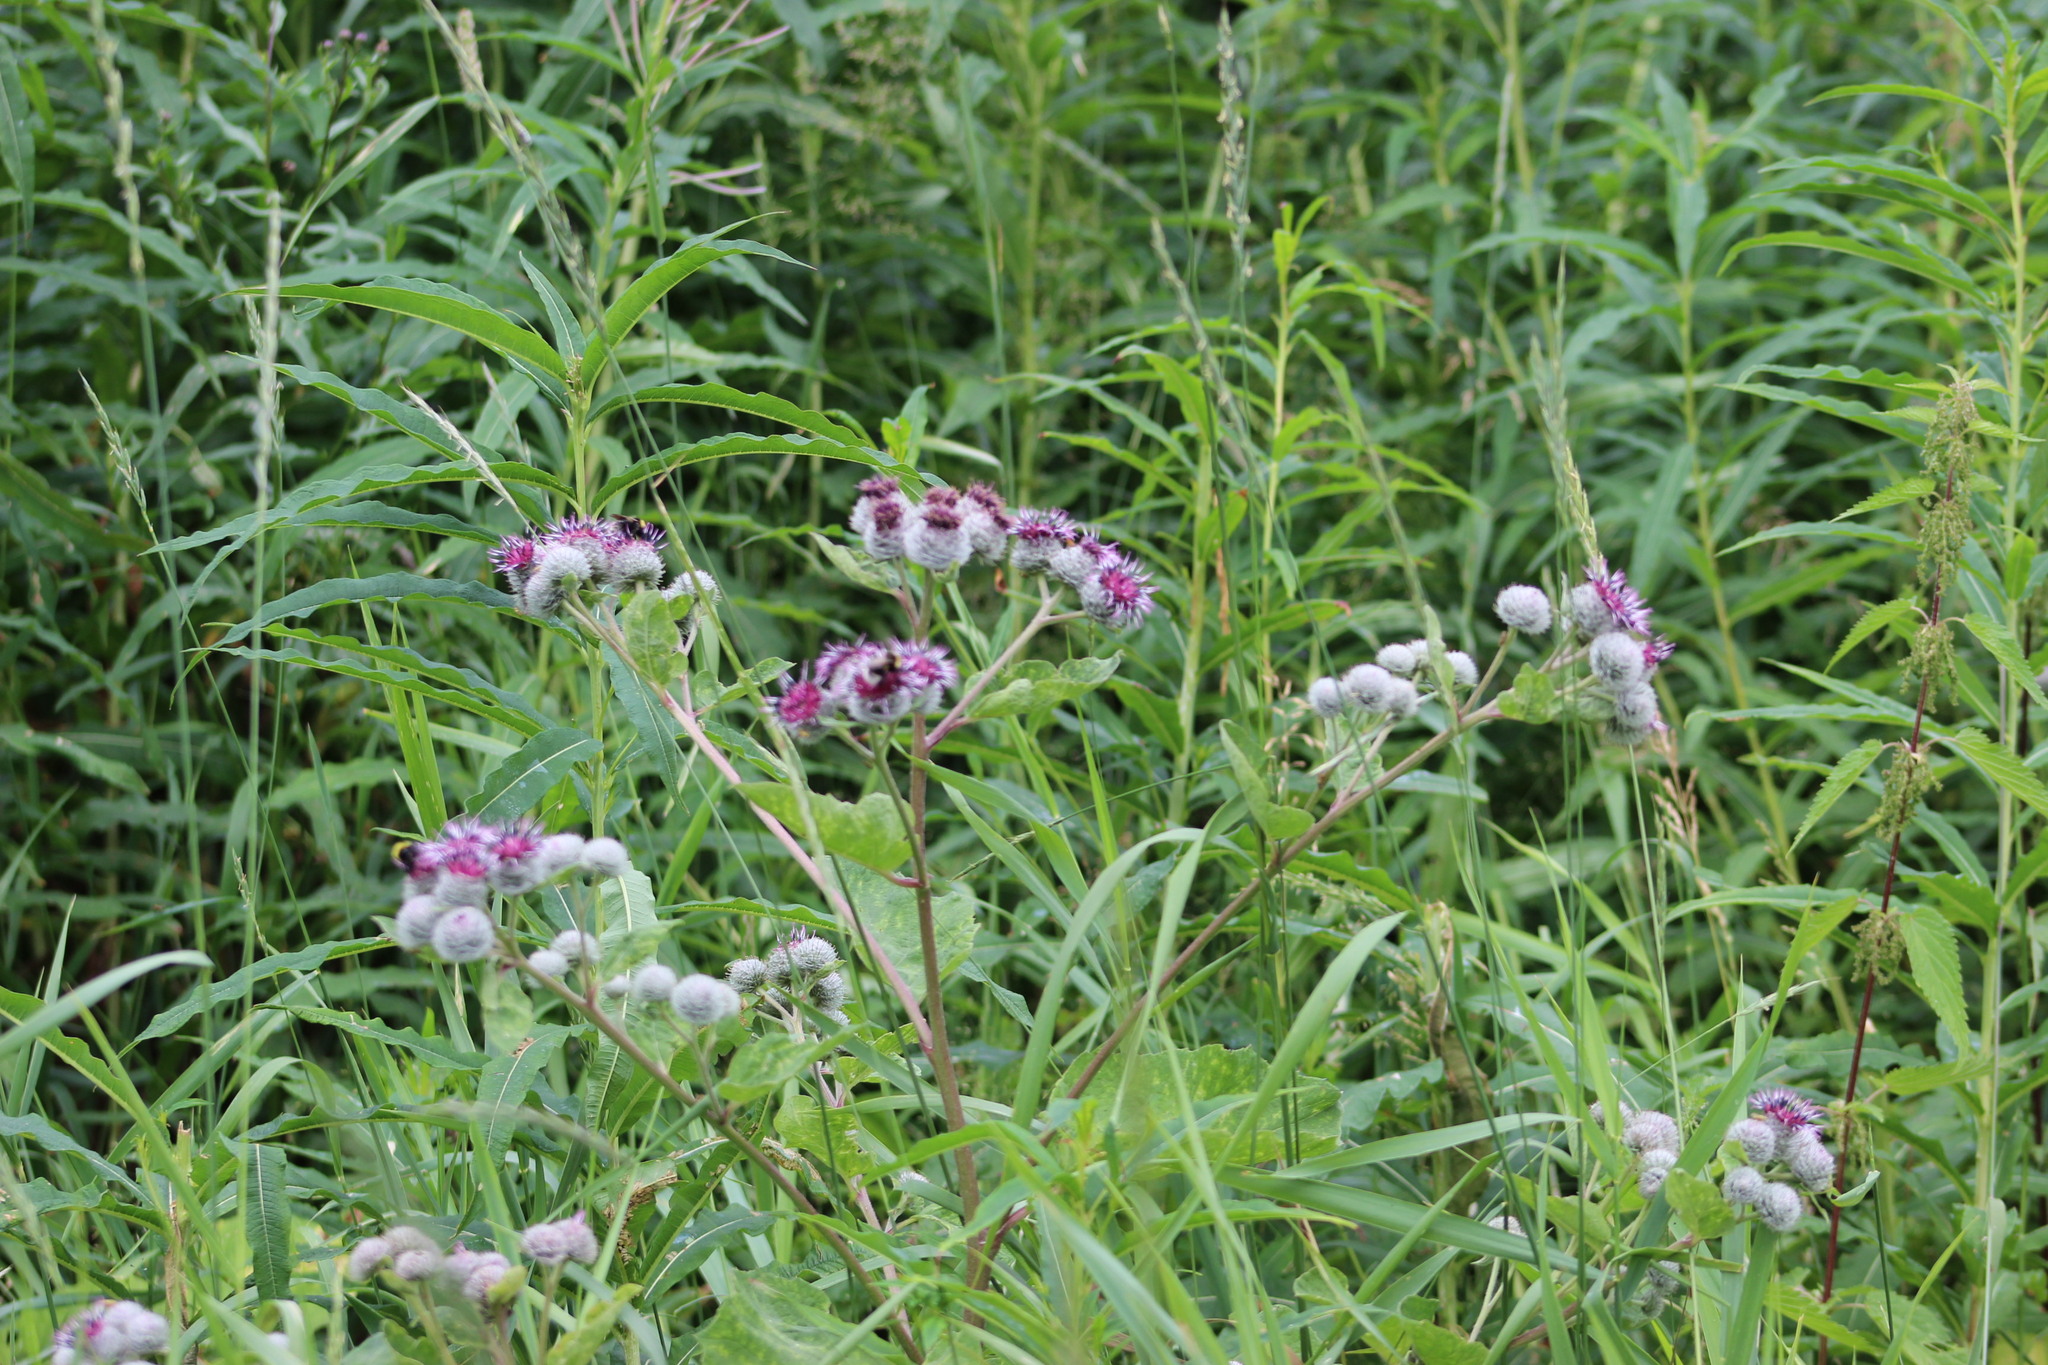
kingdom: Plantae
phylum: Tracheophyta
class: Magnoliopsida
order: Asterales
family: Asteraceae
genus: Arctium
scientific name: Arctium tomentosum
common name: Woolly burdock
